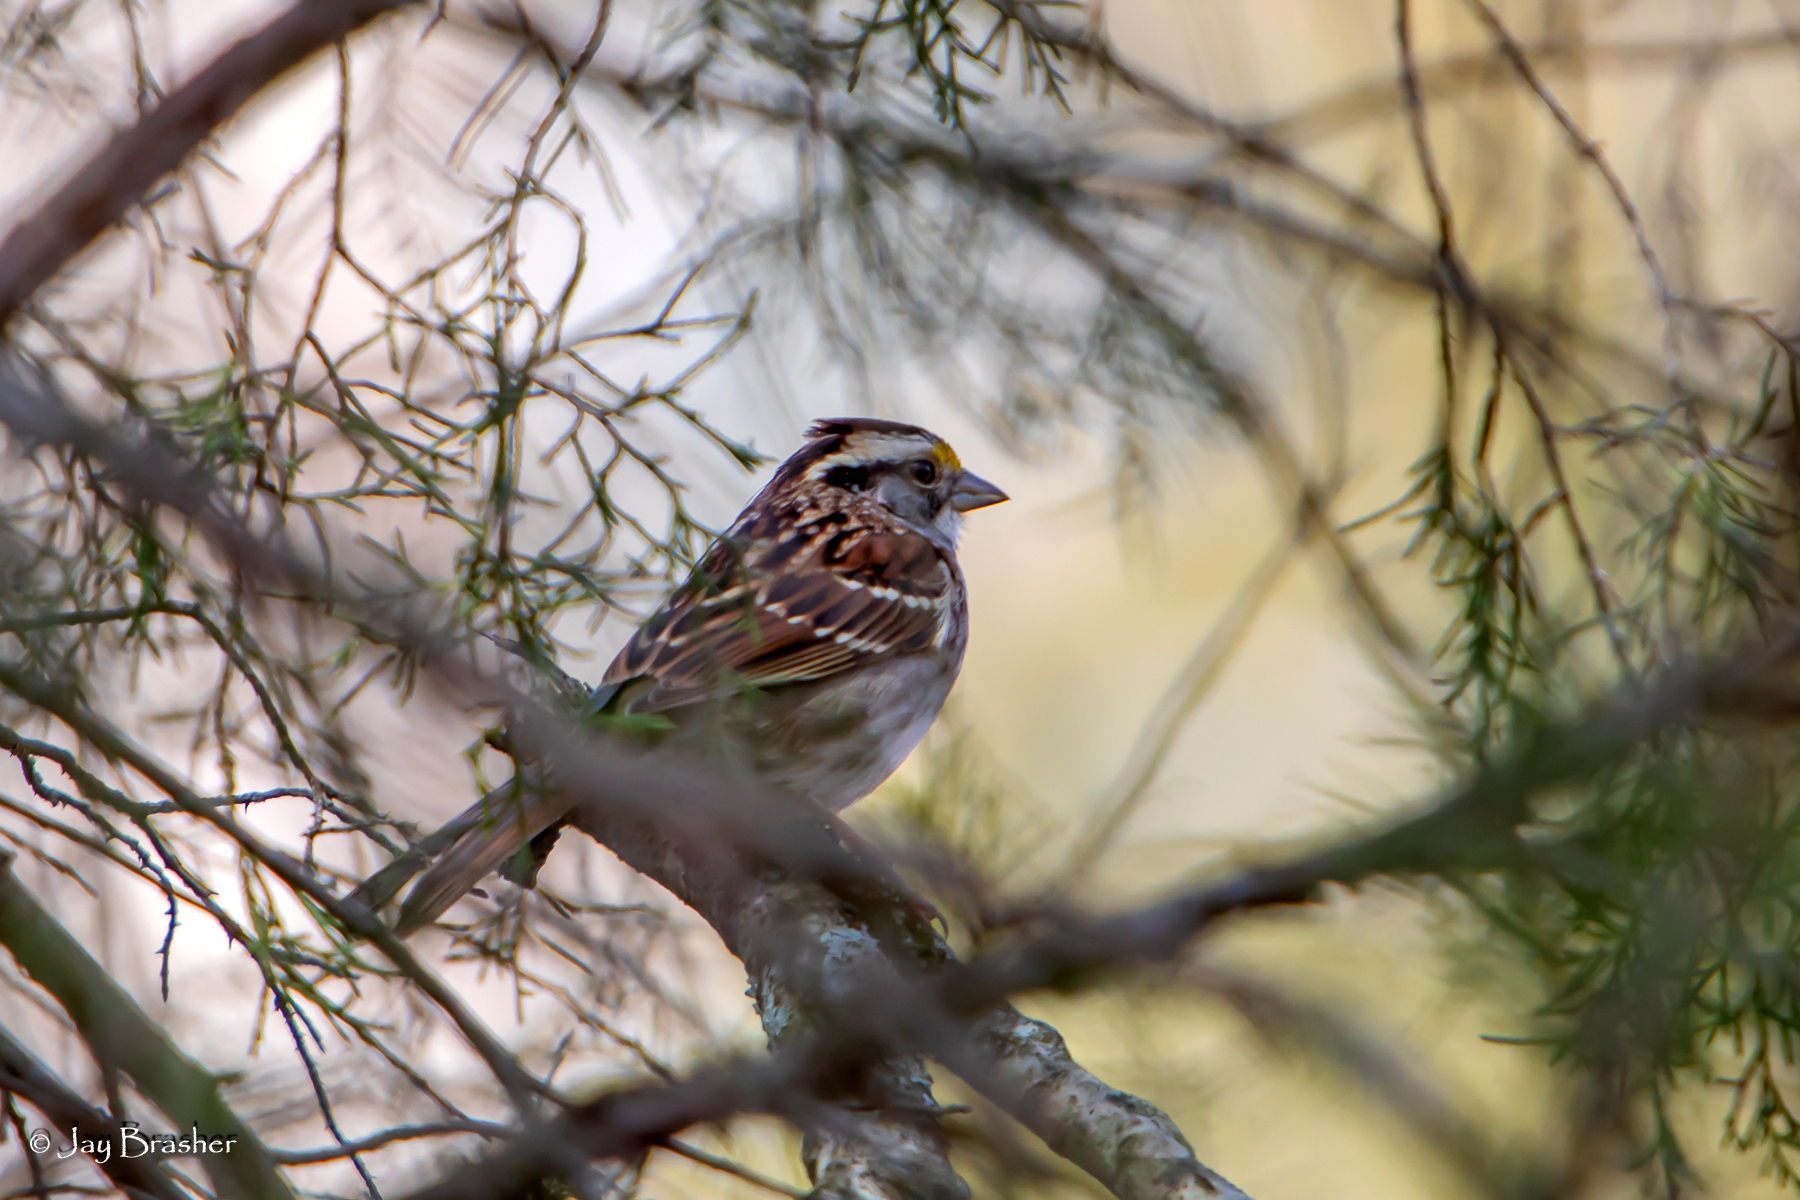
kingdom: Animalia
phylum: Chordata
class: Aves
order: Passeriformes
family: Passerellidae
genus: Zonotrichia
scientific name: Zonotrichia albicollis
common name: White-throated sparrow
